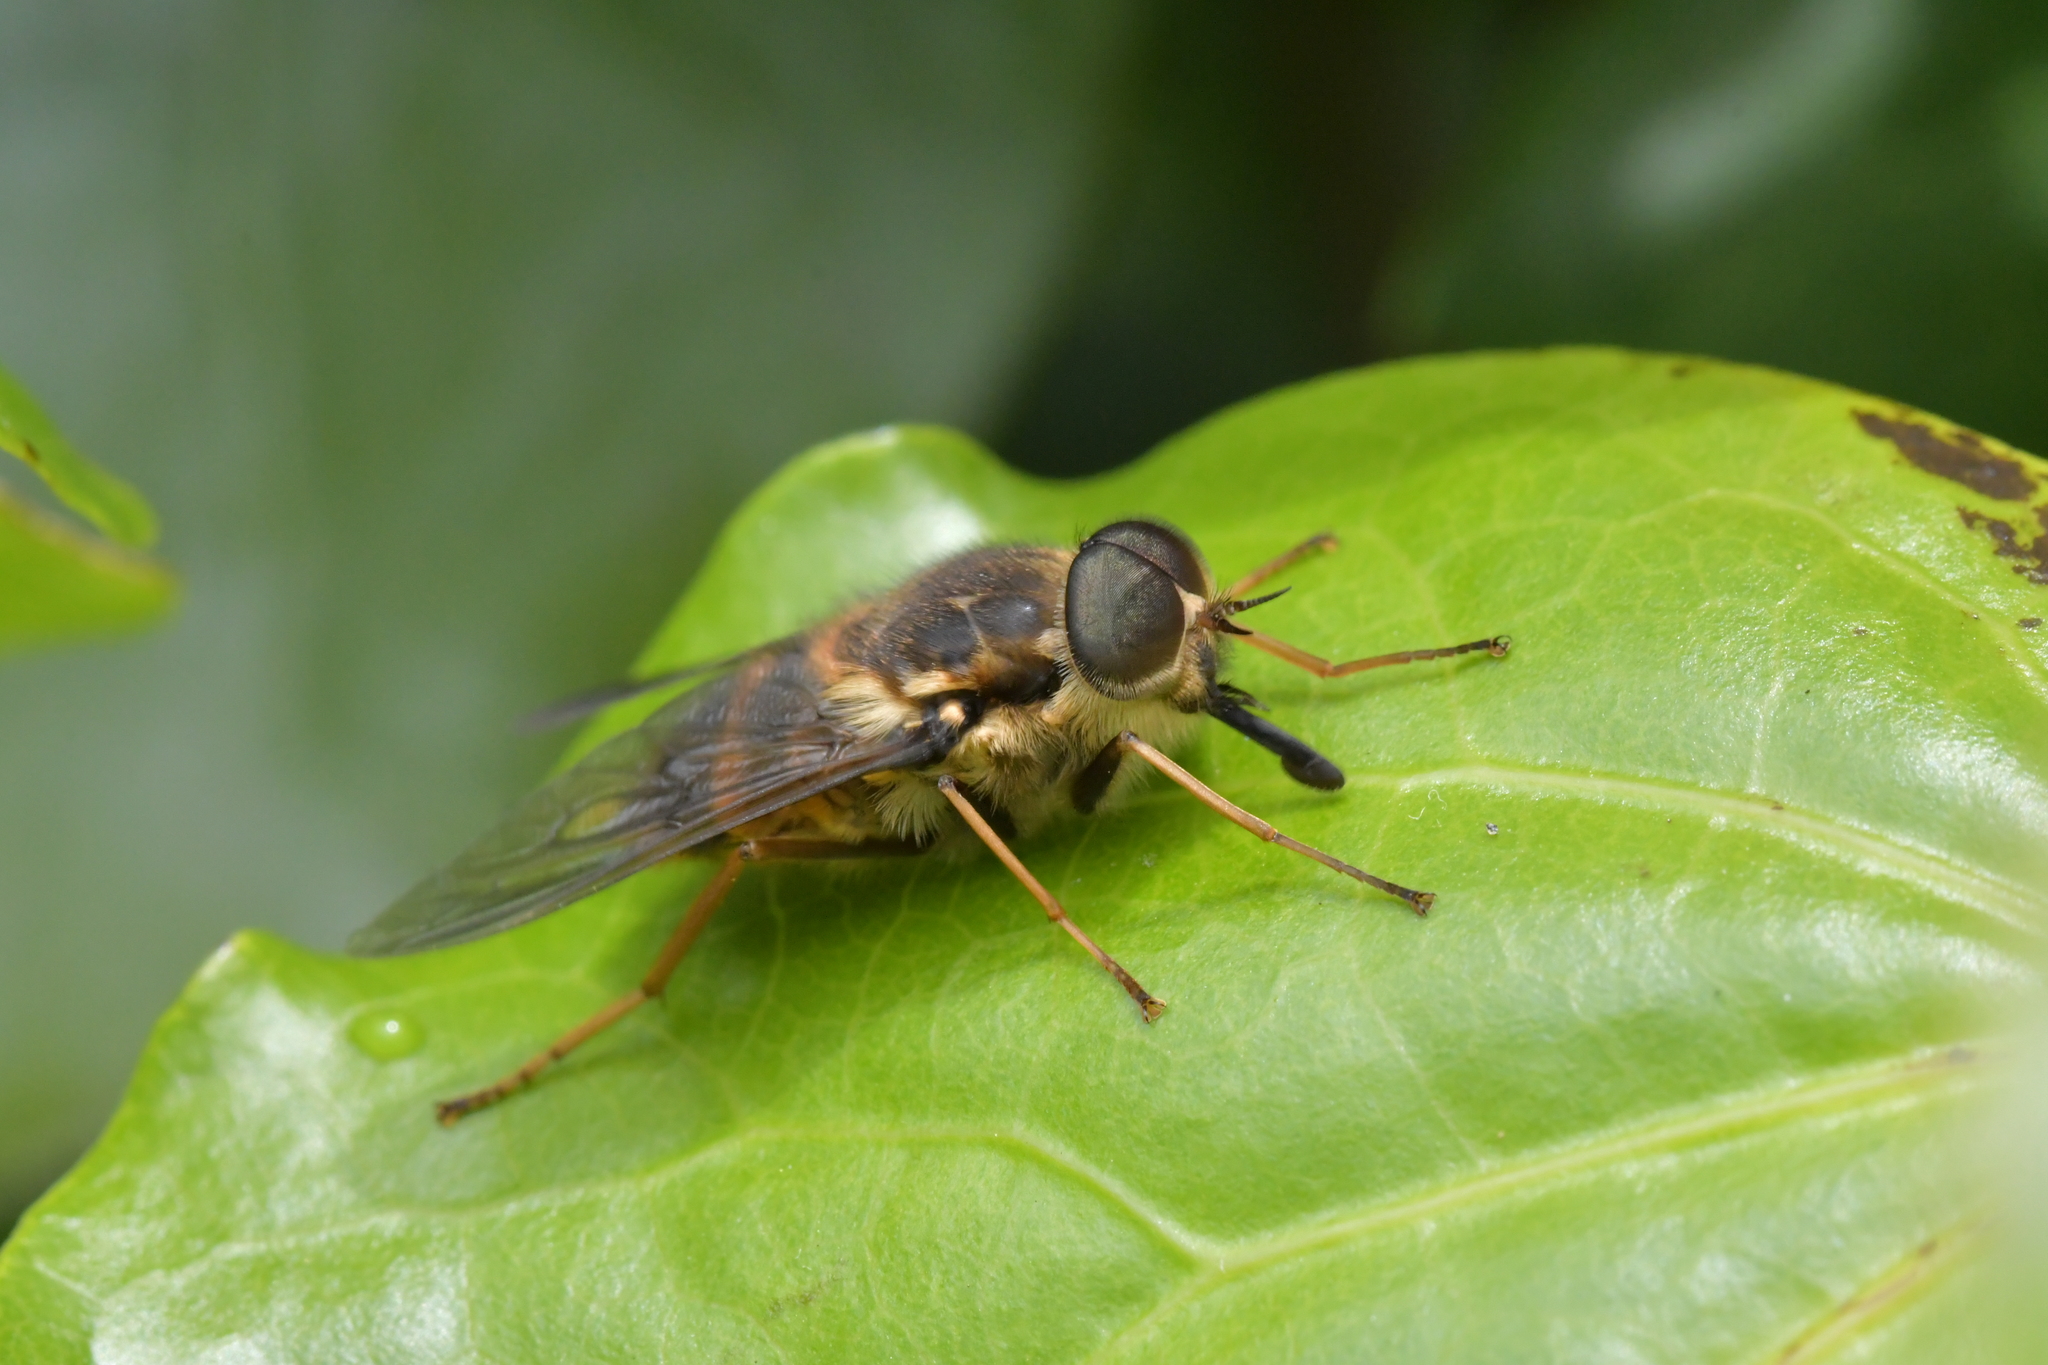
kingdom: Animalia
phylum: Arthropoda
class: Insecta
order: Diptera
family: Tabanidae
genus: Scaptia
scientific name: Scaptia
